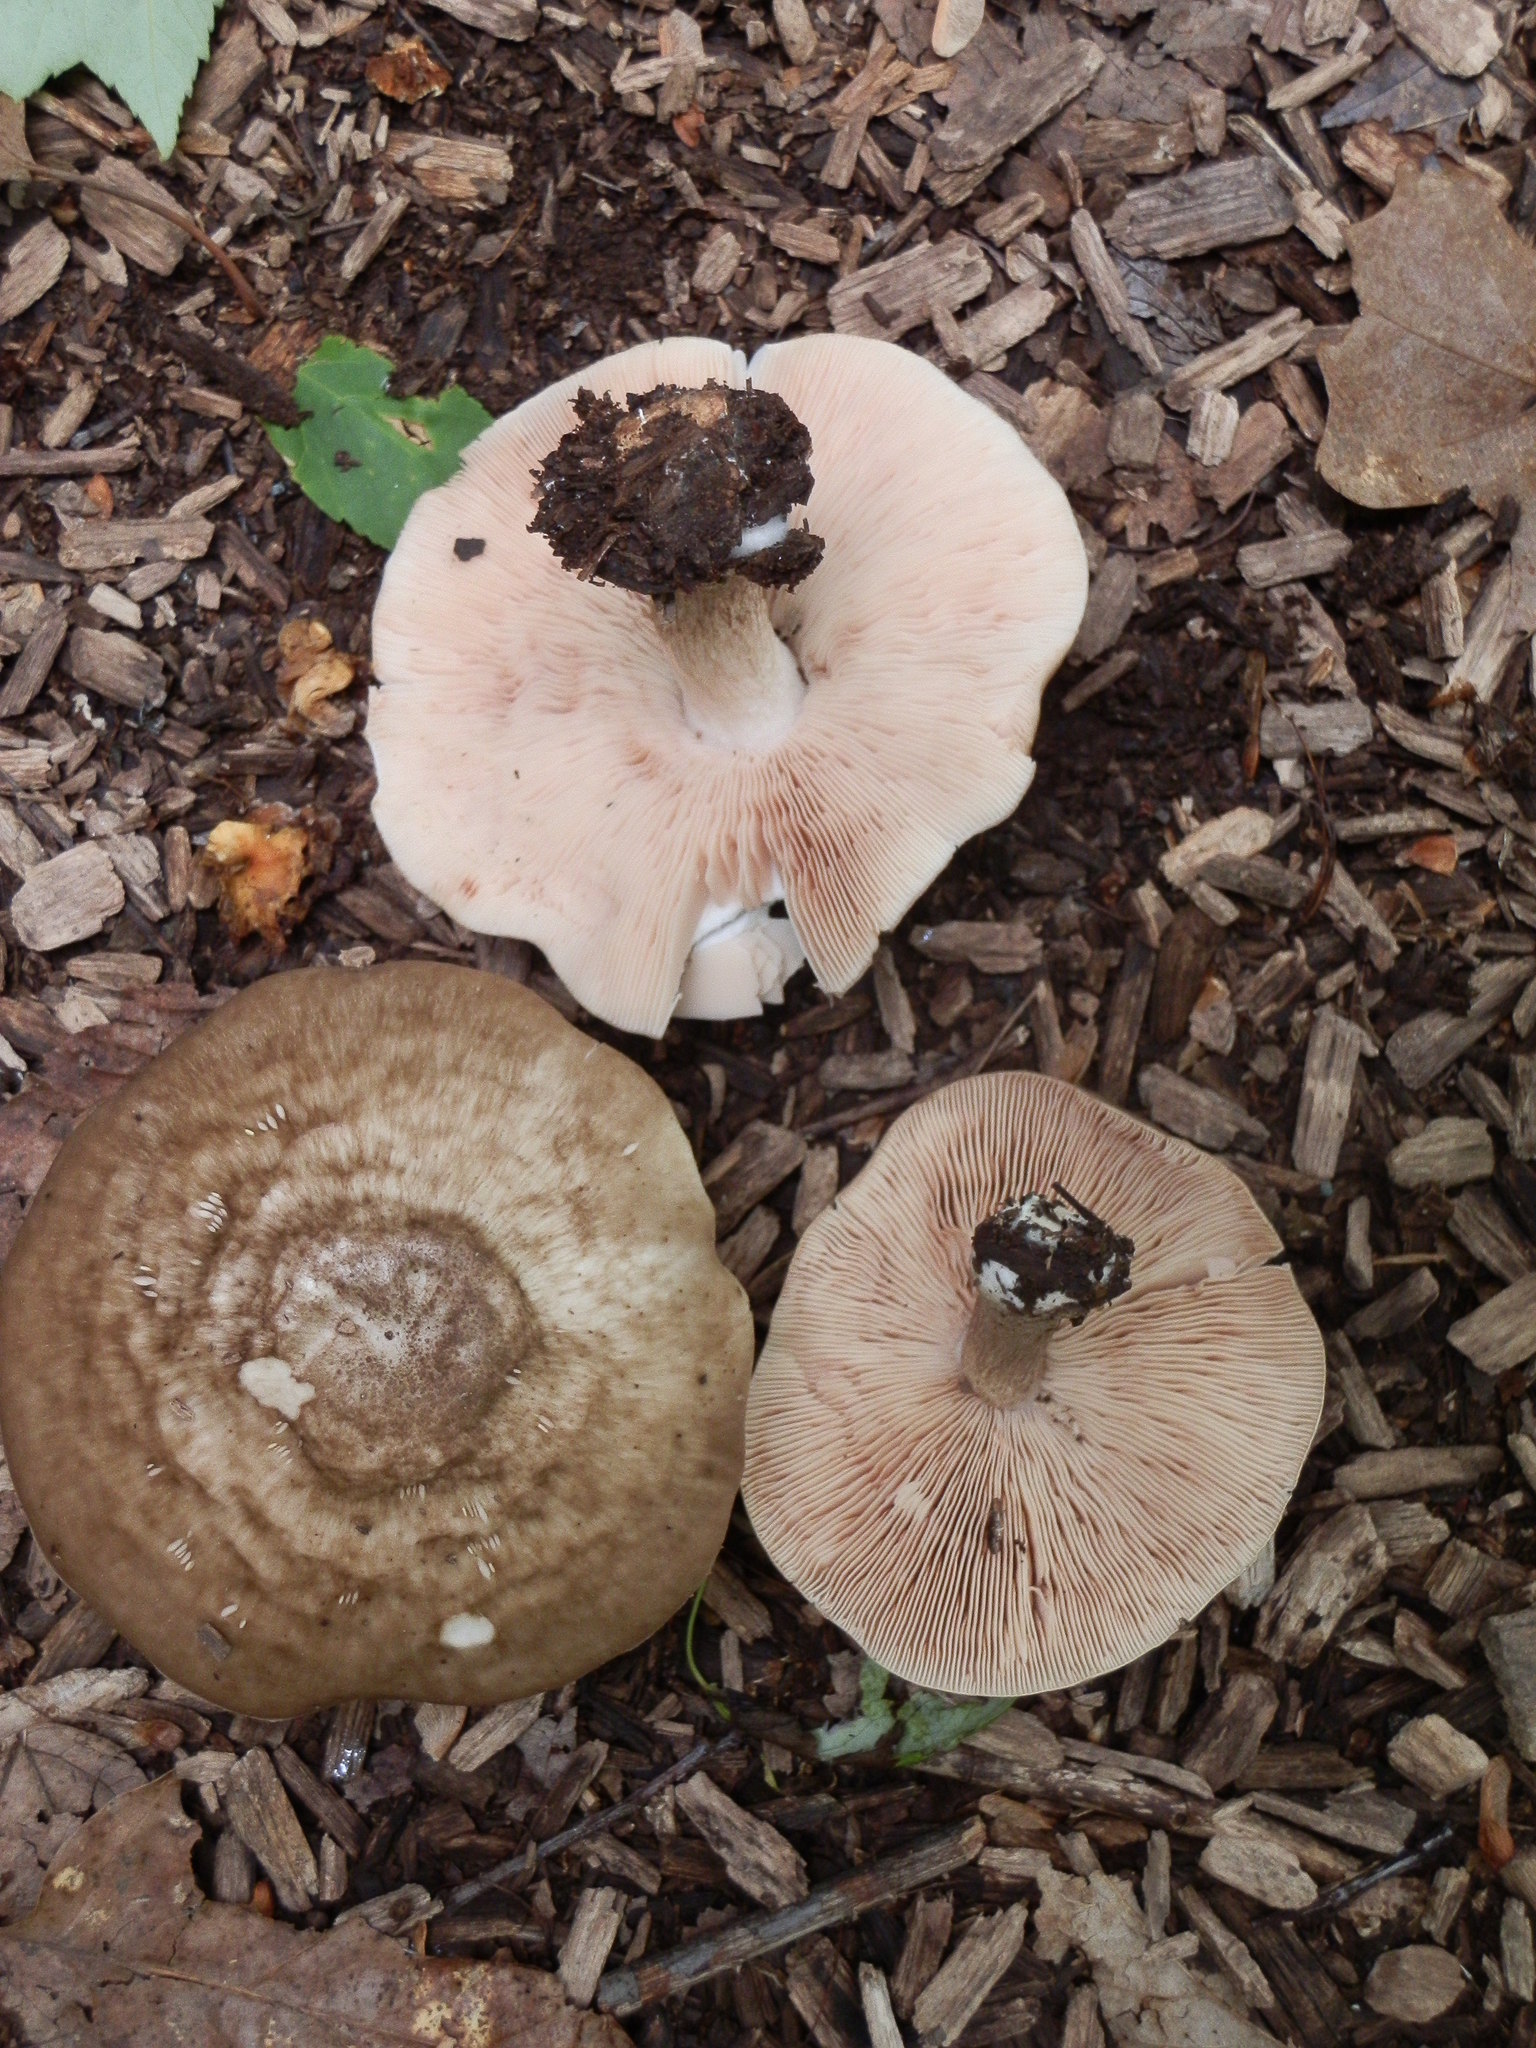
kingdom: Fungi
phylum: Basidiomycota
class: Agaricomycetes
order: Agaricales
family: Pluteaceae
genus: Pluteus
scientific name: Pluteus cervinus
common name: Deer shield
